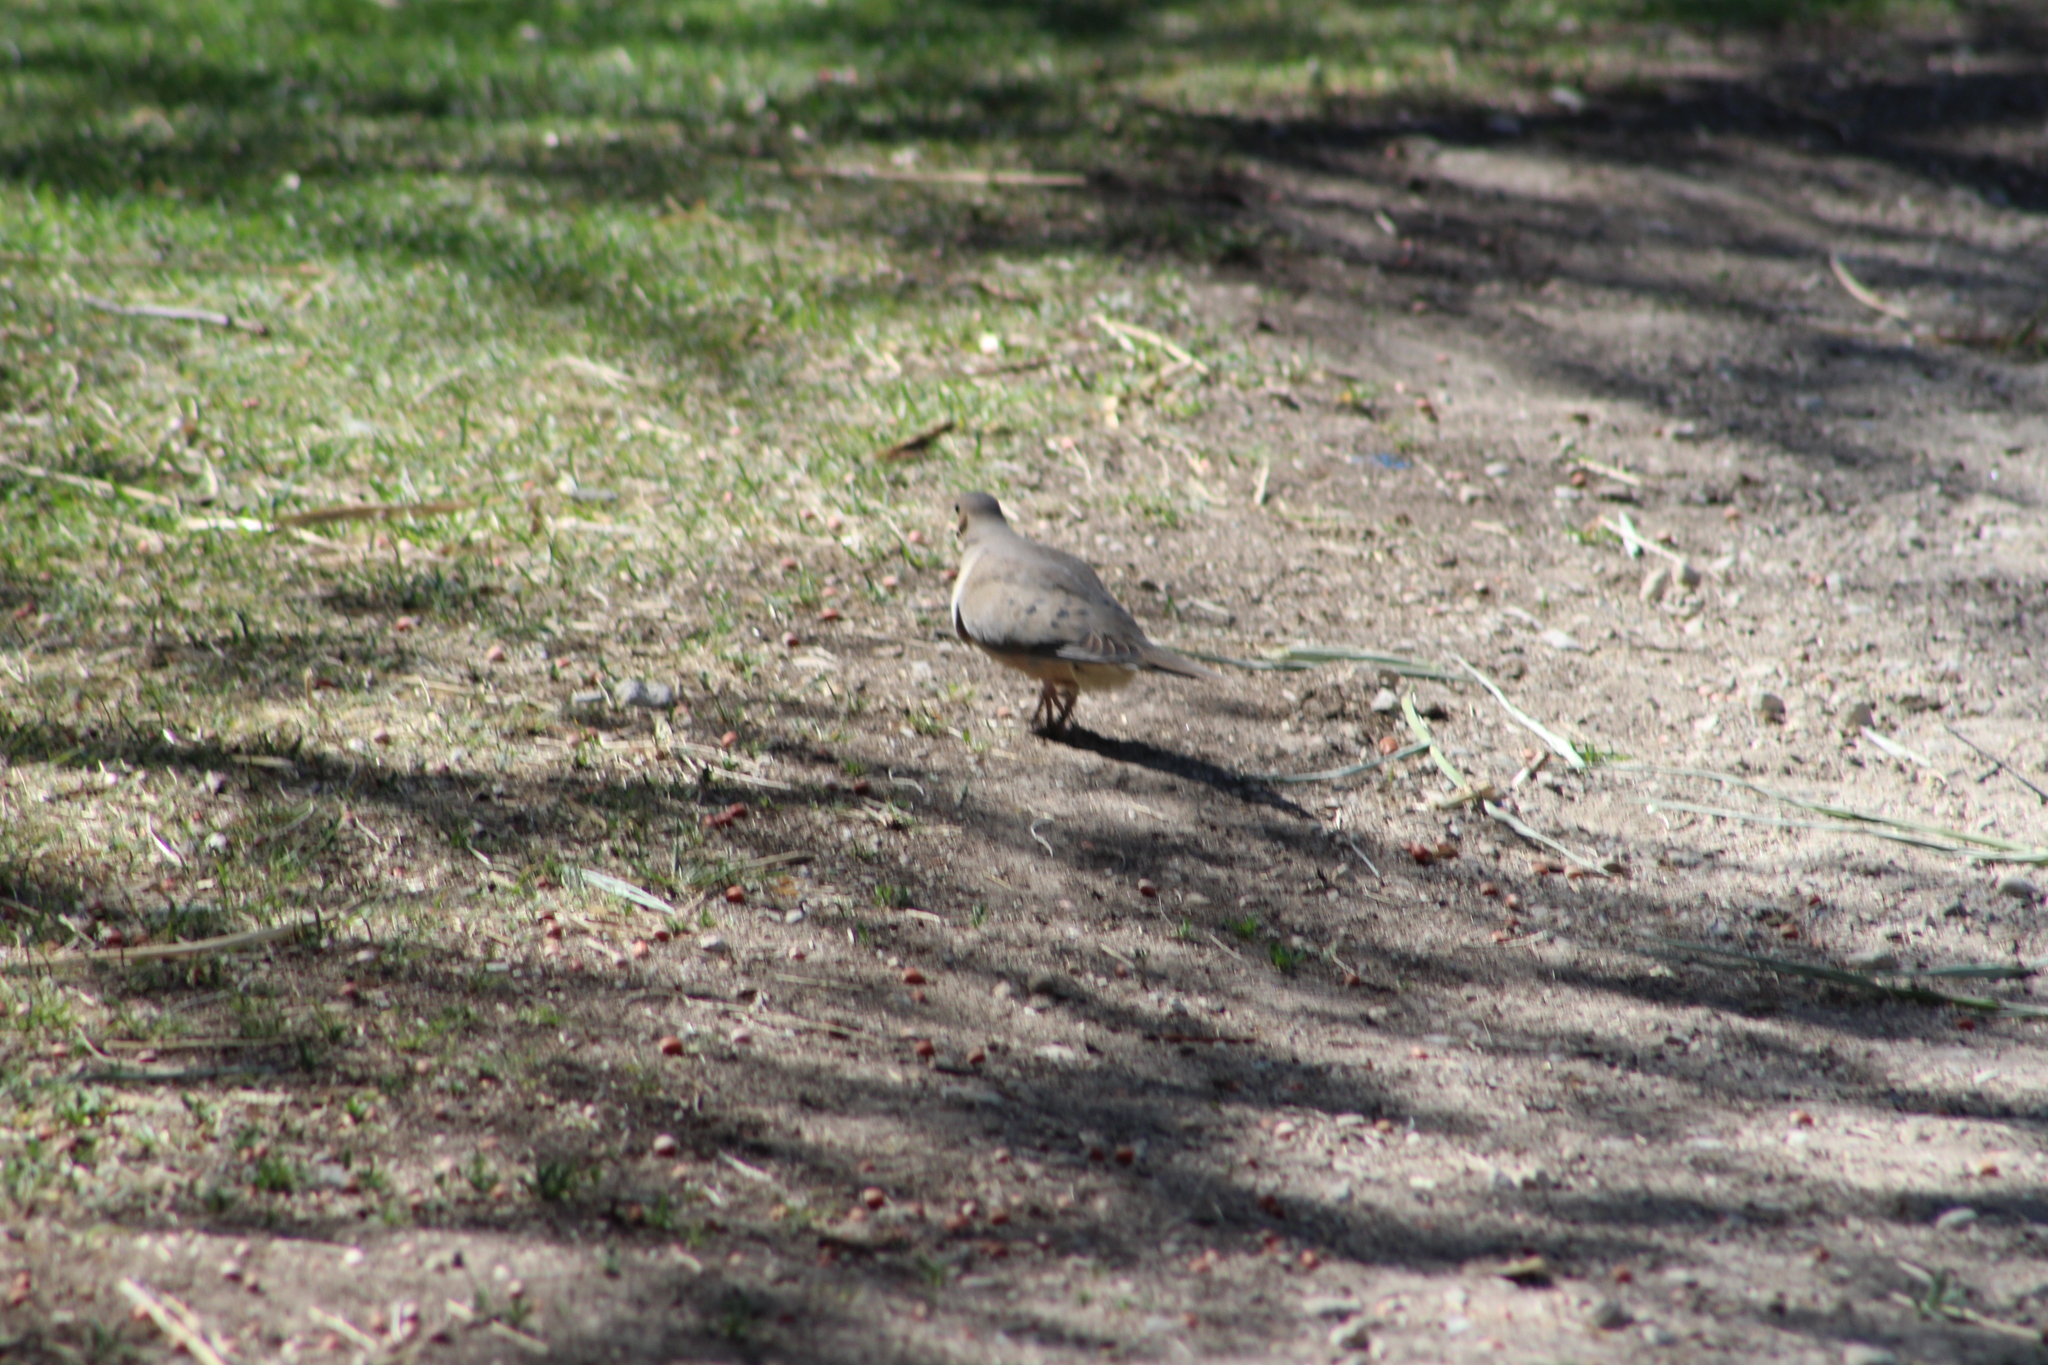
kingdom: Animalia
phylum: Chordata
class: Aves
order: Columbiformes
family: Columbidae
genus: Zenaida
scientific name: Zenaida macroura
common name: Mourning dove
